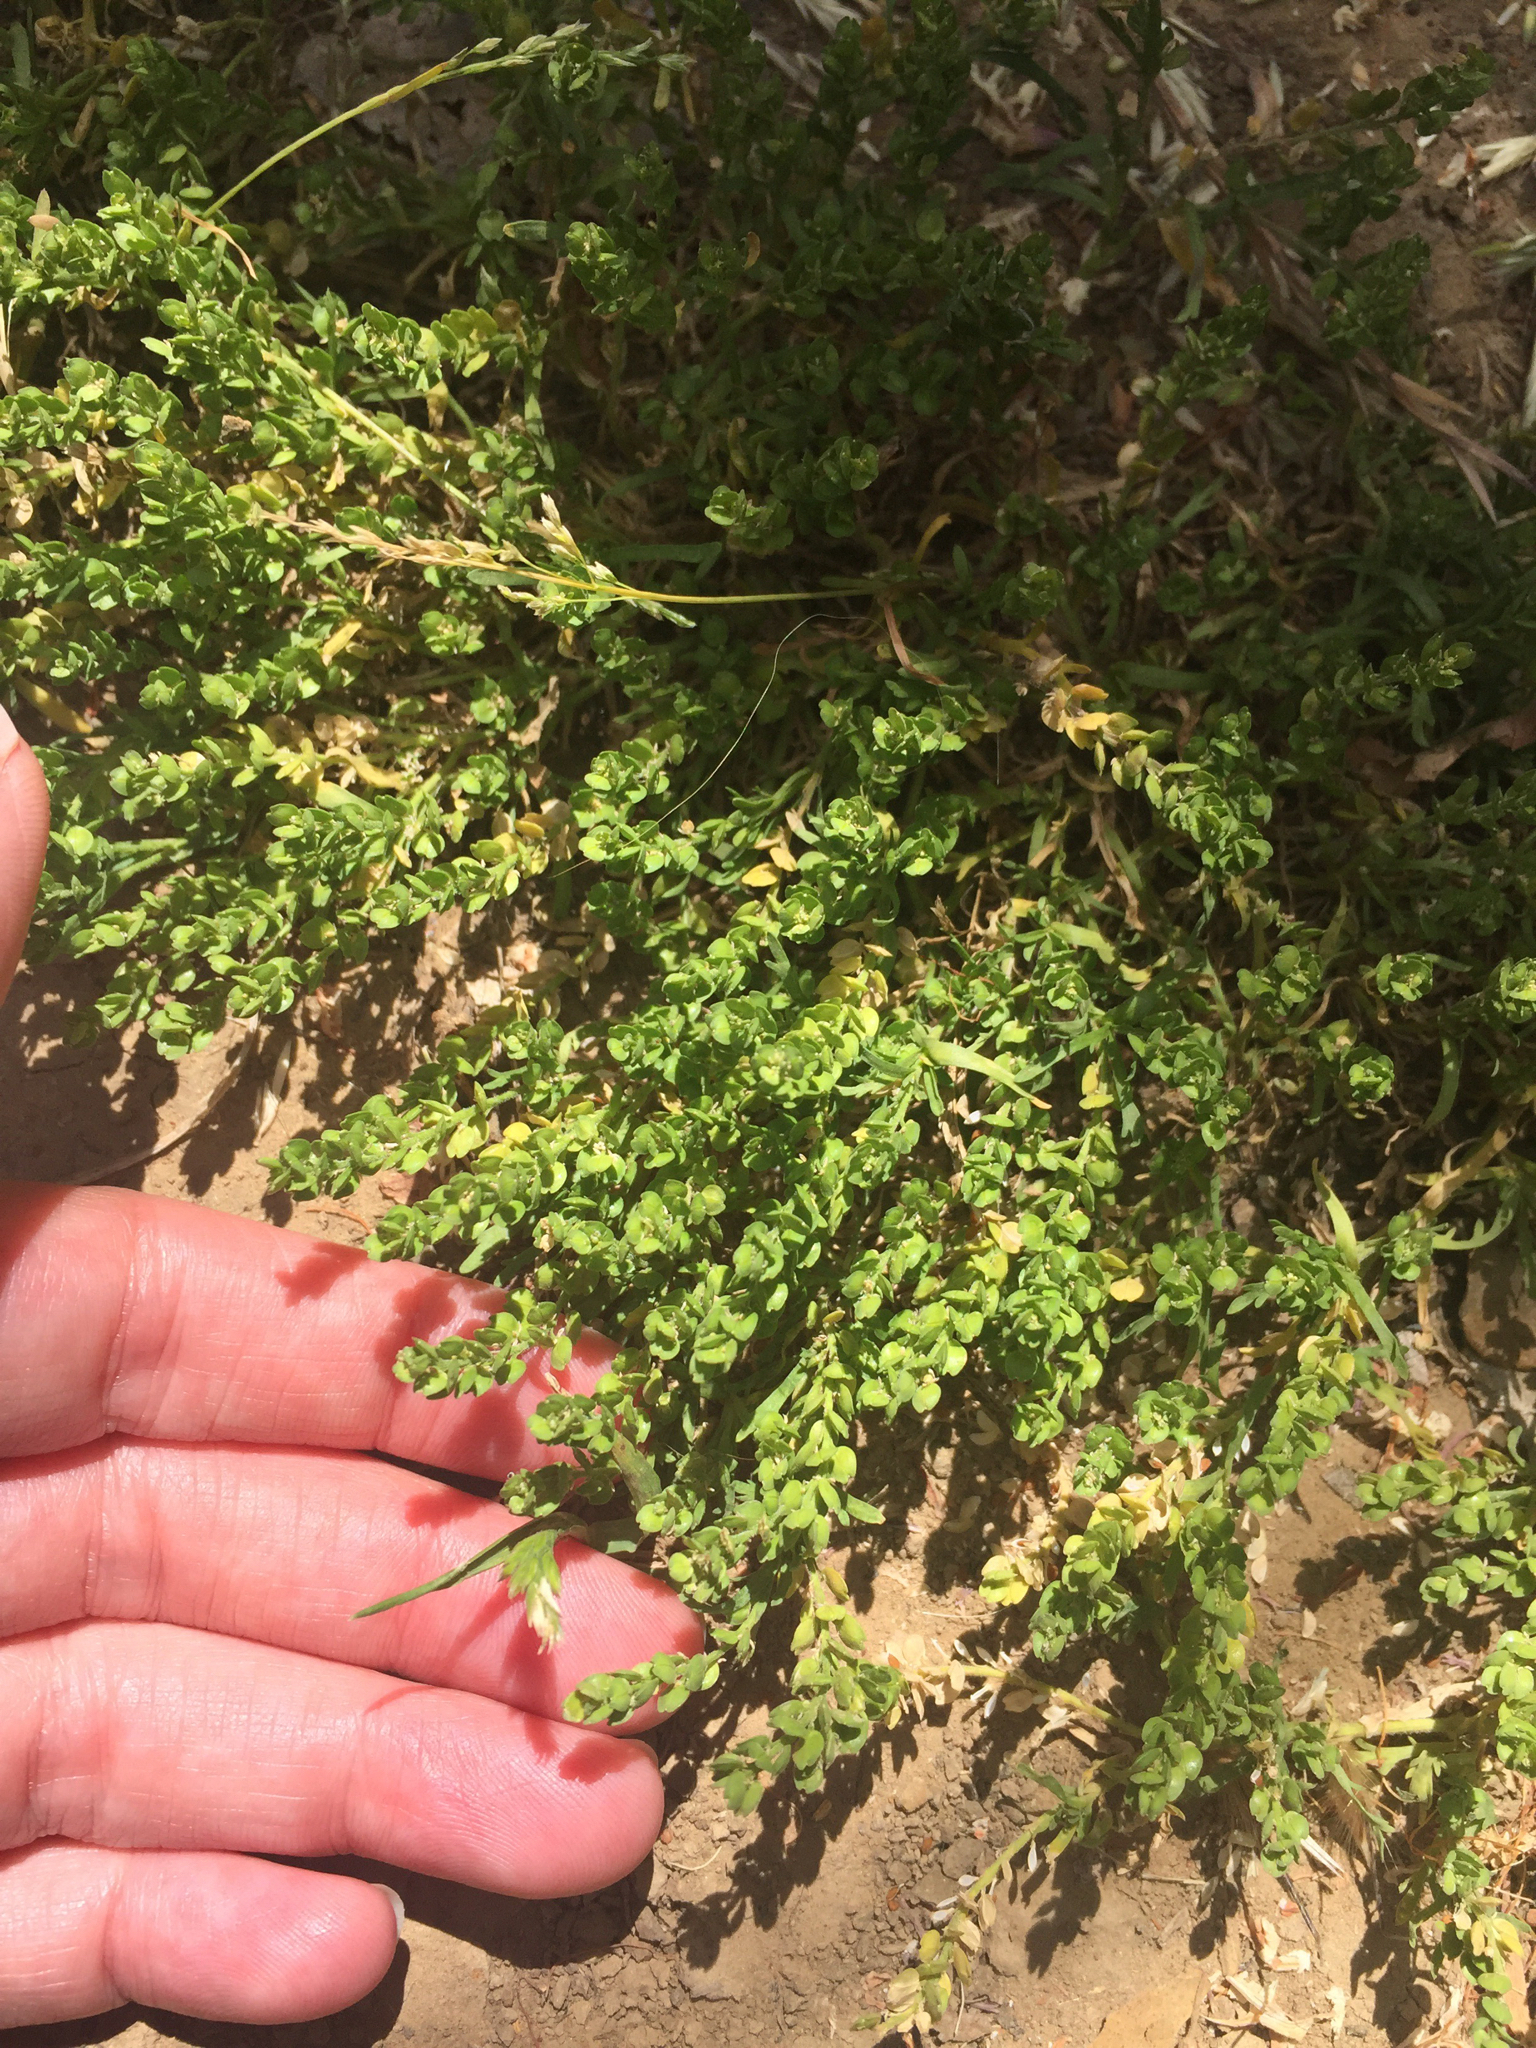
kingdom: Plantae
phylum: Tracheophyta
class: Magnoliopsida
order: Brassicales
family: Brassicaceae
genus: Lepidium
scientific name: Lepidium strictum
